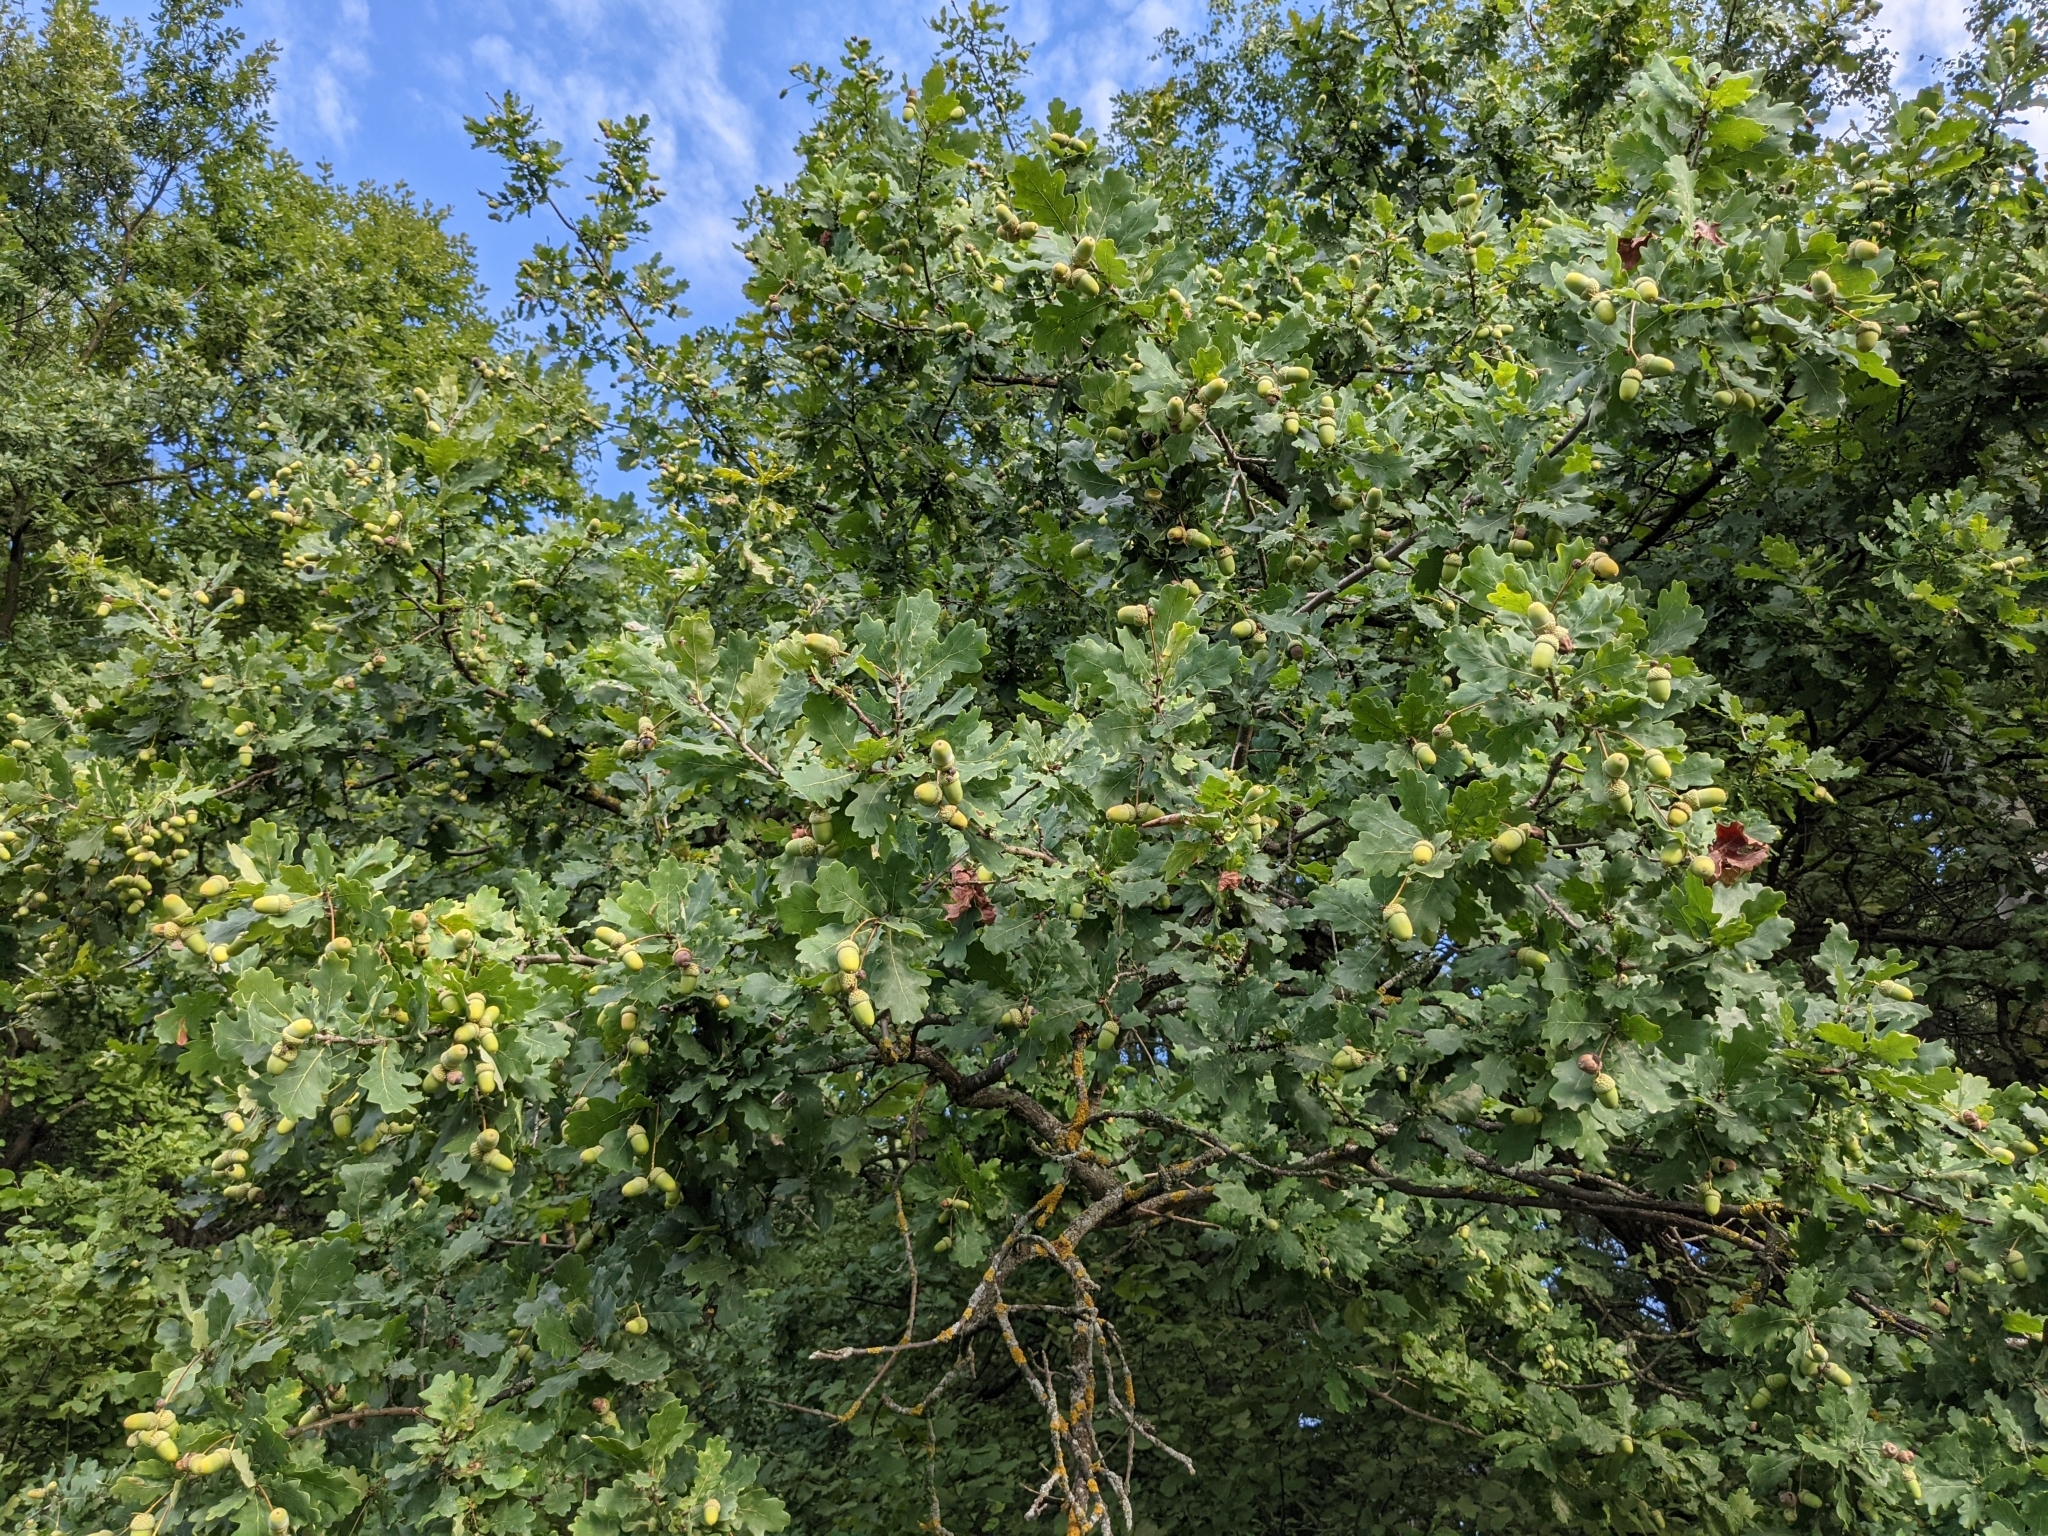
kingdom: Plantae
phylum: Tracheophyta
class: Magnoliopsida
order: Fagales
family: Fagaceae
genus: Quercus
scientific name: Quercus robur
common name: Pedunculate oak
